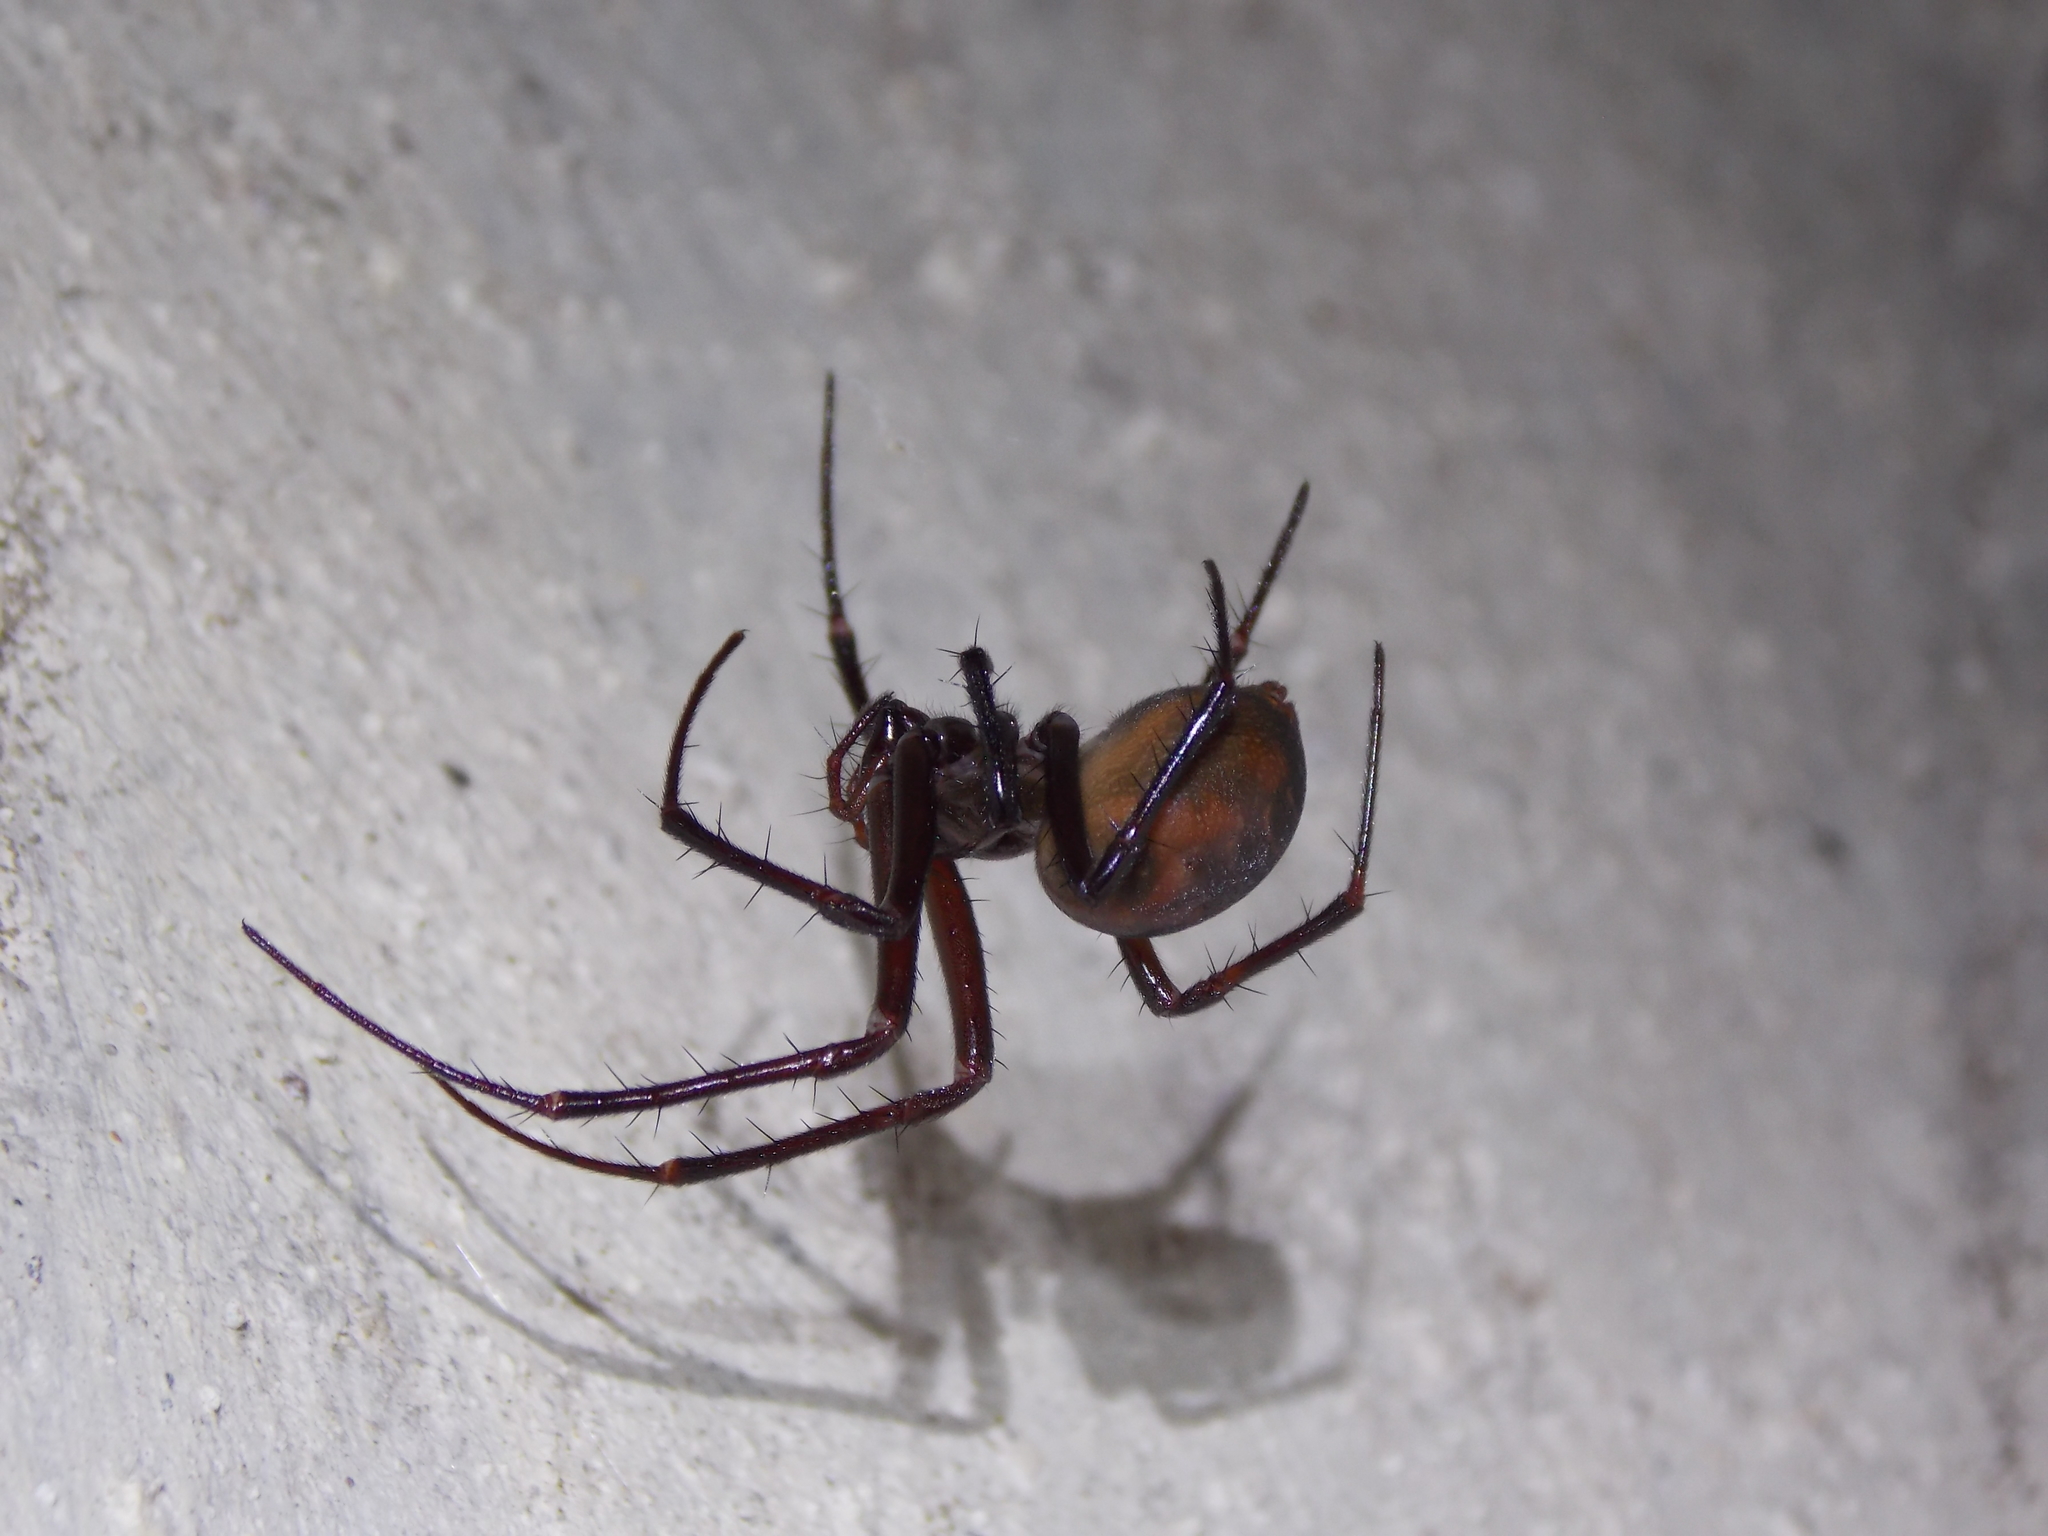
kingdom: Animalia
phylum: Arthropoda
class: Arachnida
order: Araneae
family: Tetragnathidae
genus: Meta
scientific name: Meta bourneti
